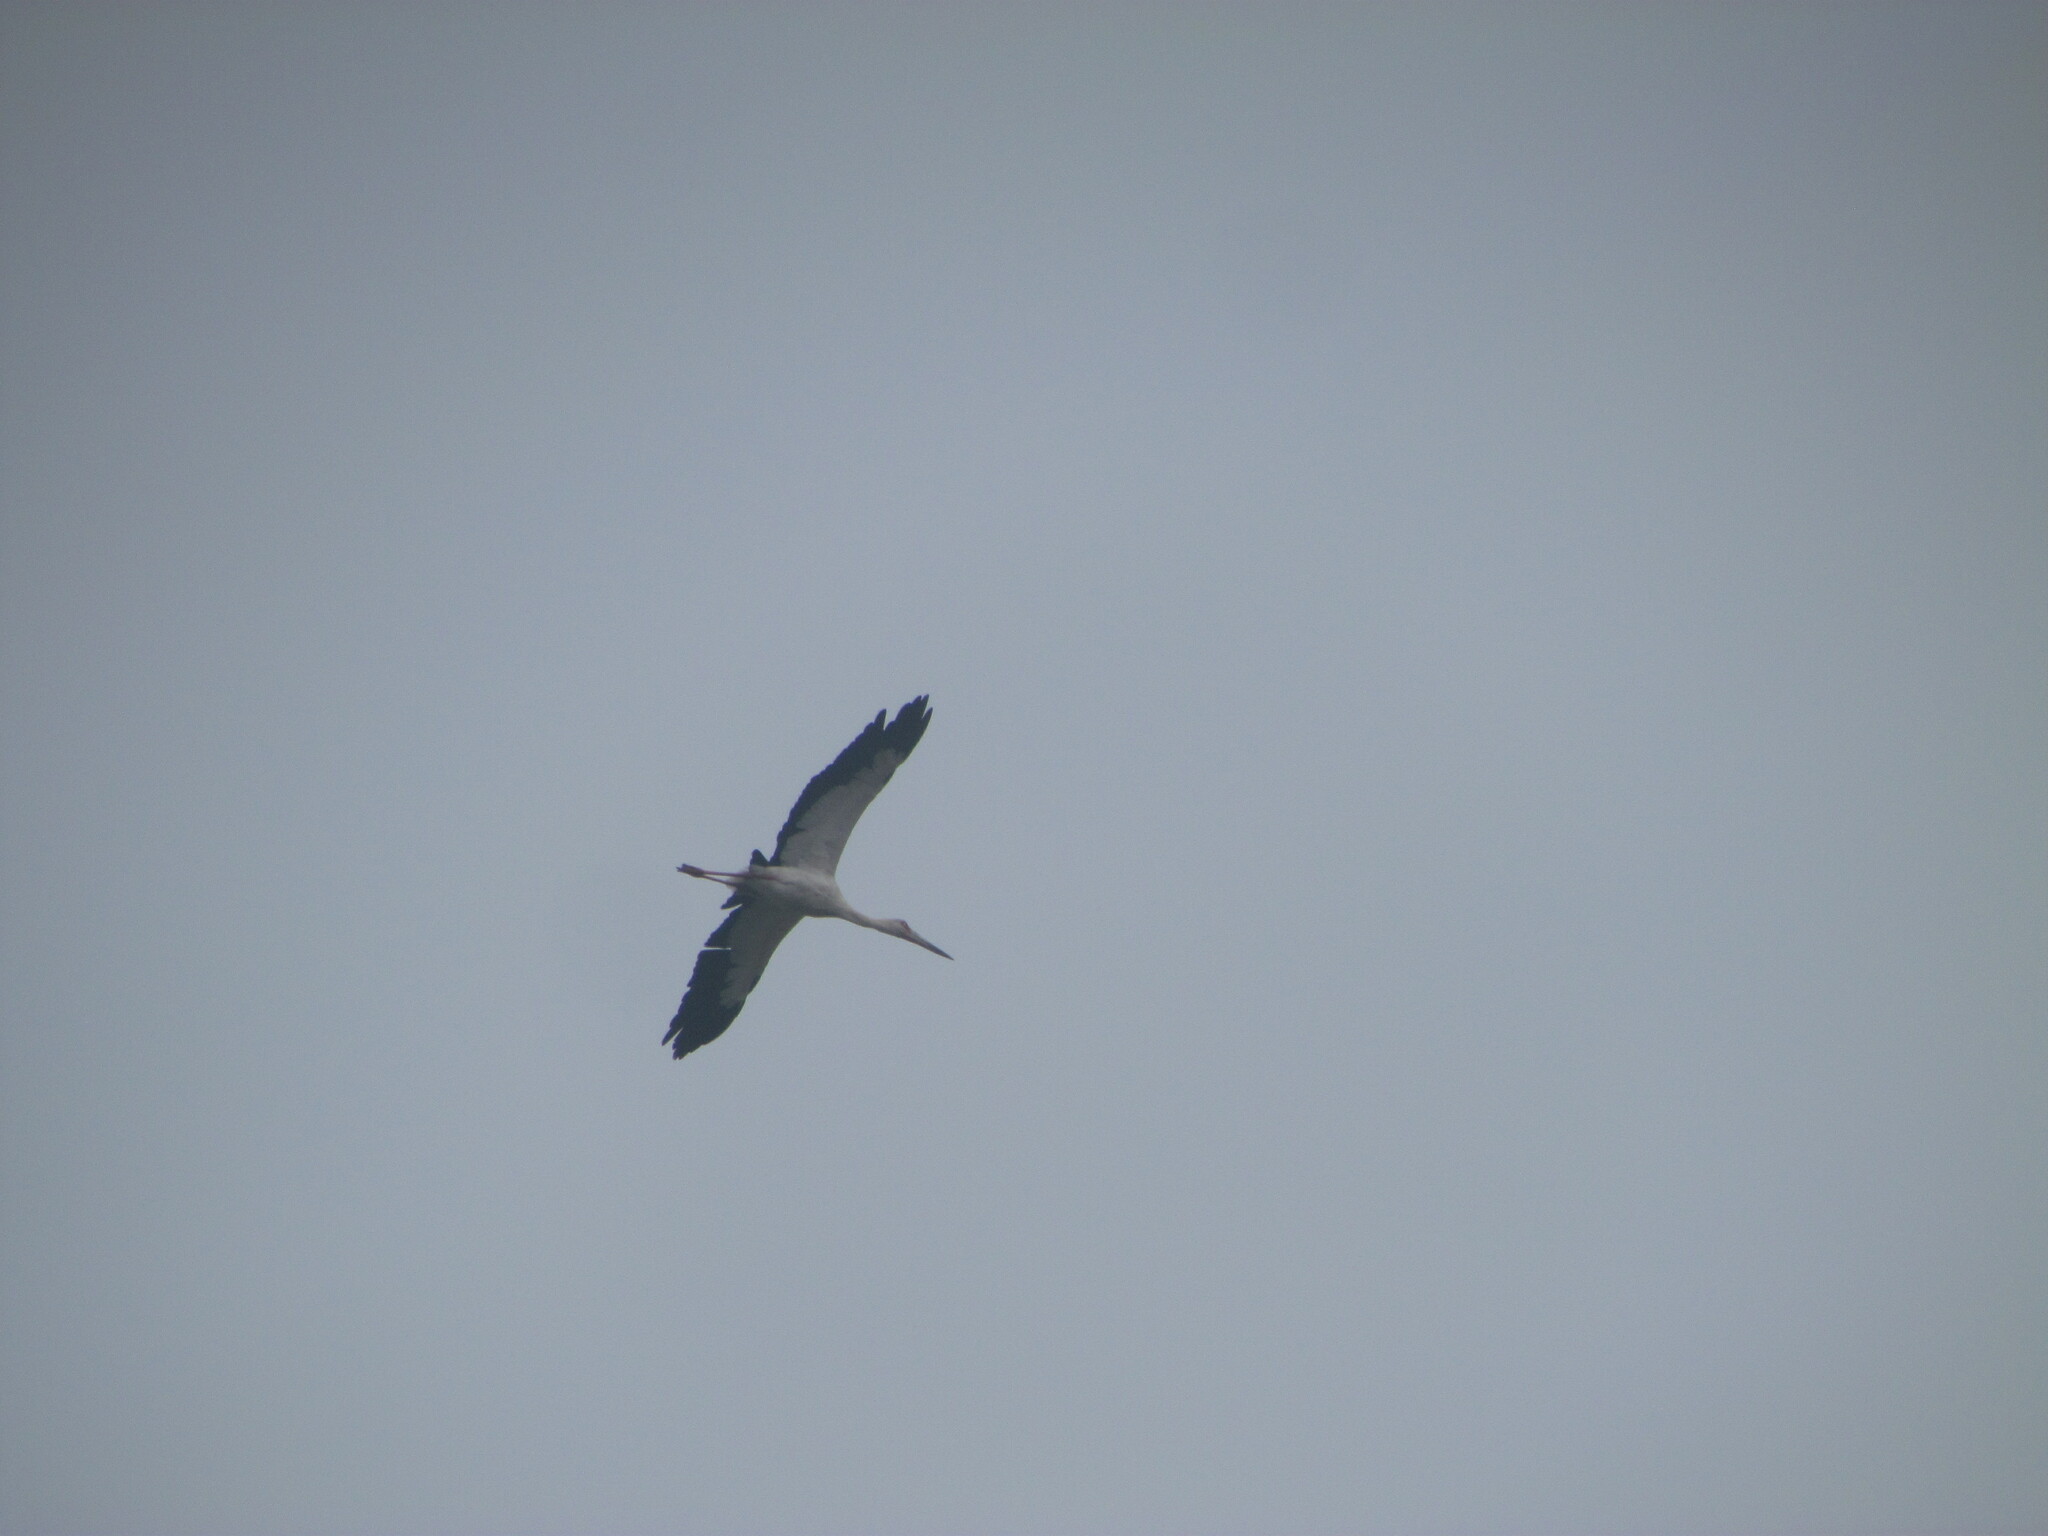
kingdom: Animalia
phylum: Chordata
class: Aves
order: Ciconiiformes
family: Ciconiidae
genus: Ciconia
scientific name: Ciconia maguari
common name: Maguari stork
